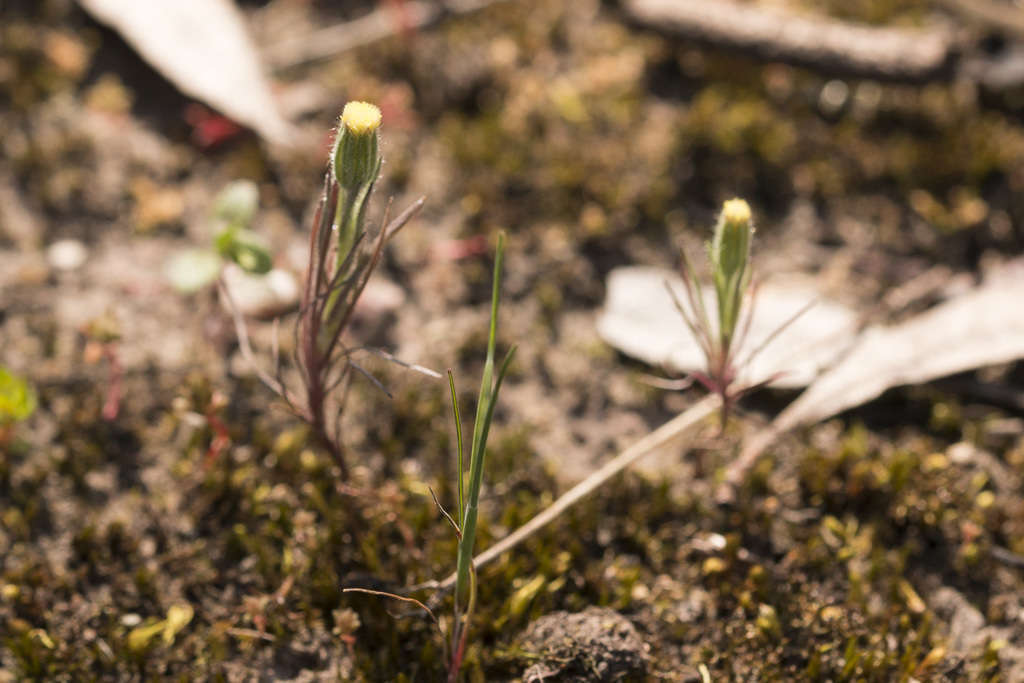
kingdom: Plantae
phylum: Tracheophyta
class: Magnoliopsida
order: Asterales
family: Asteraceae
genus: Millotia
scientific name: Millotia tenuifolia
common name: Soft millotia
